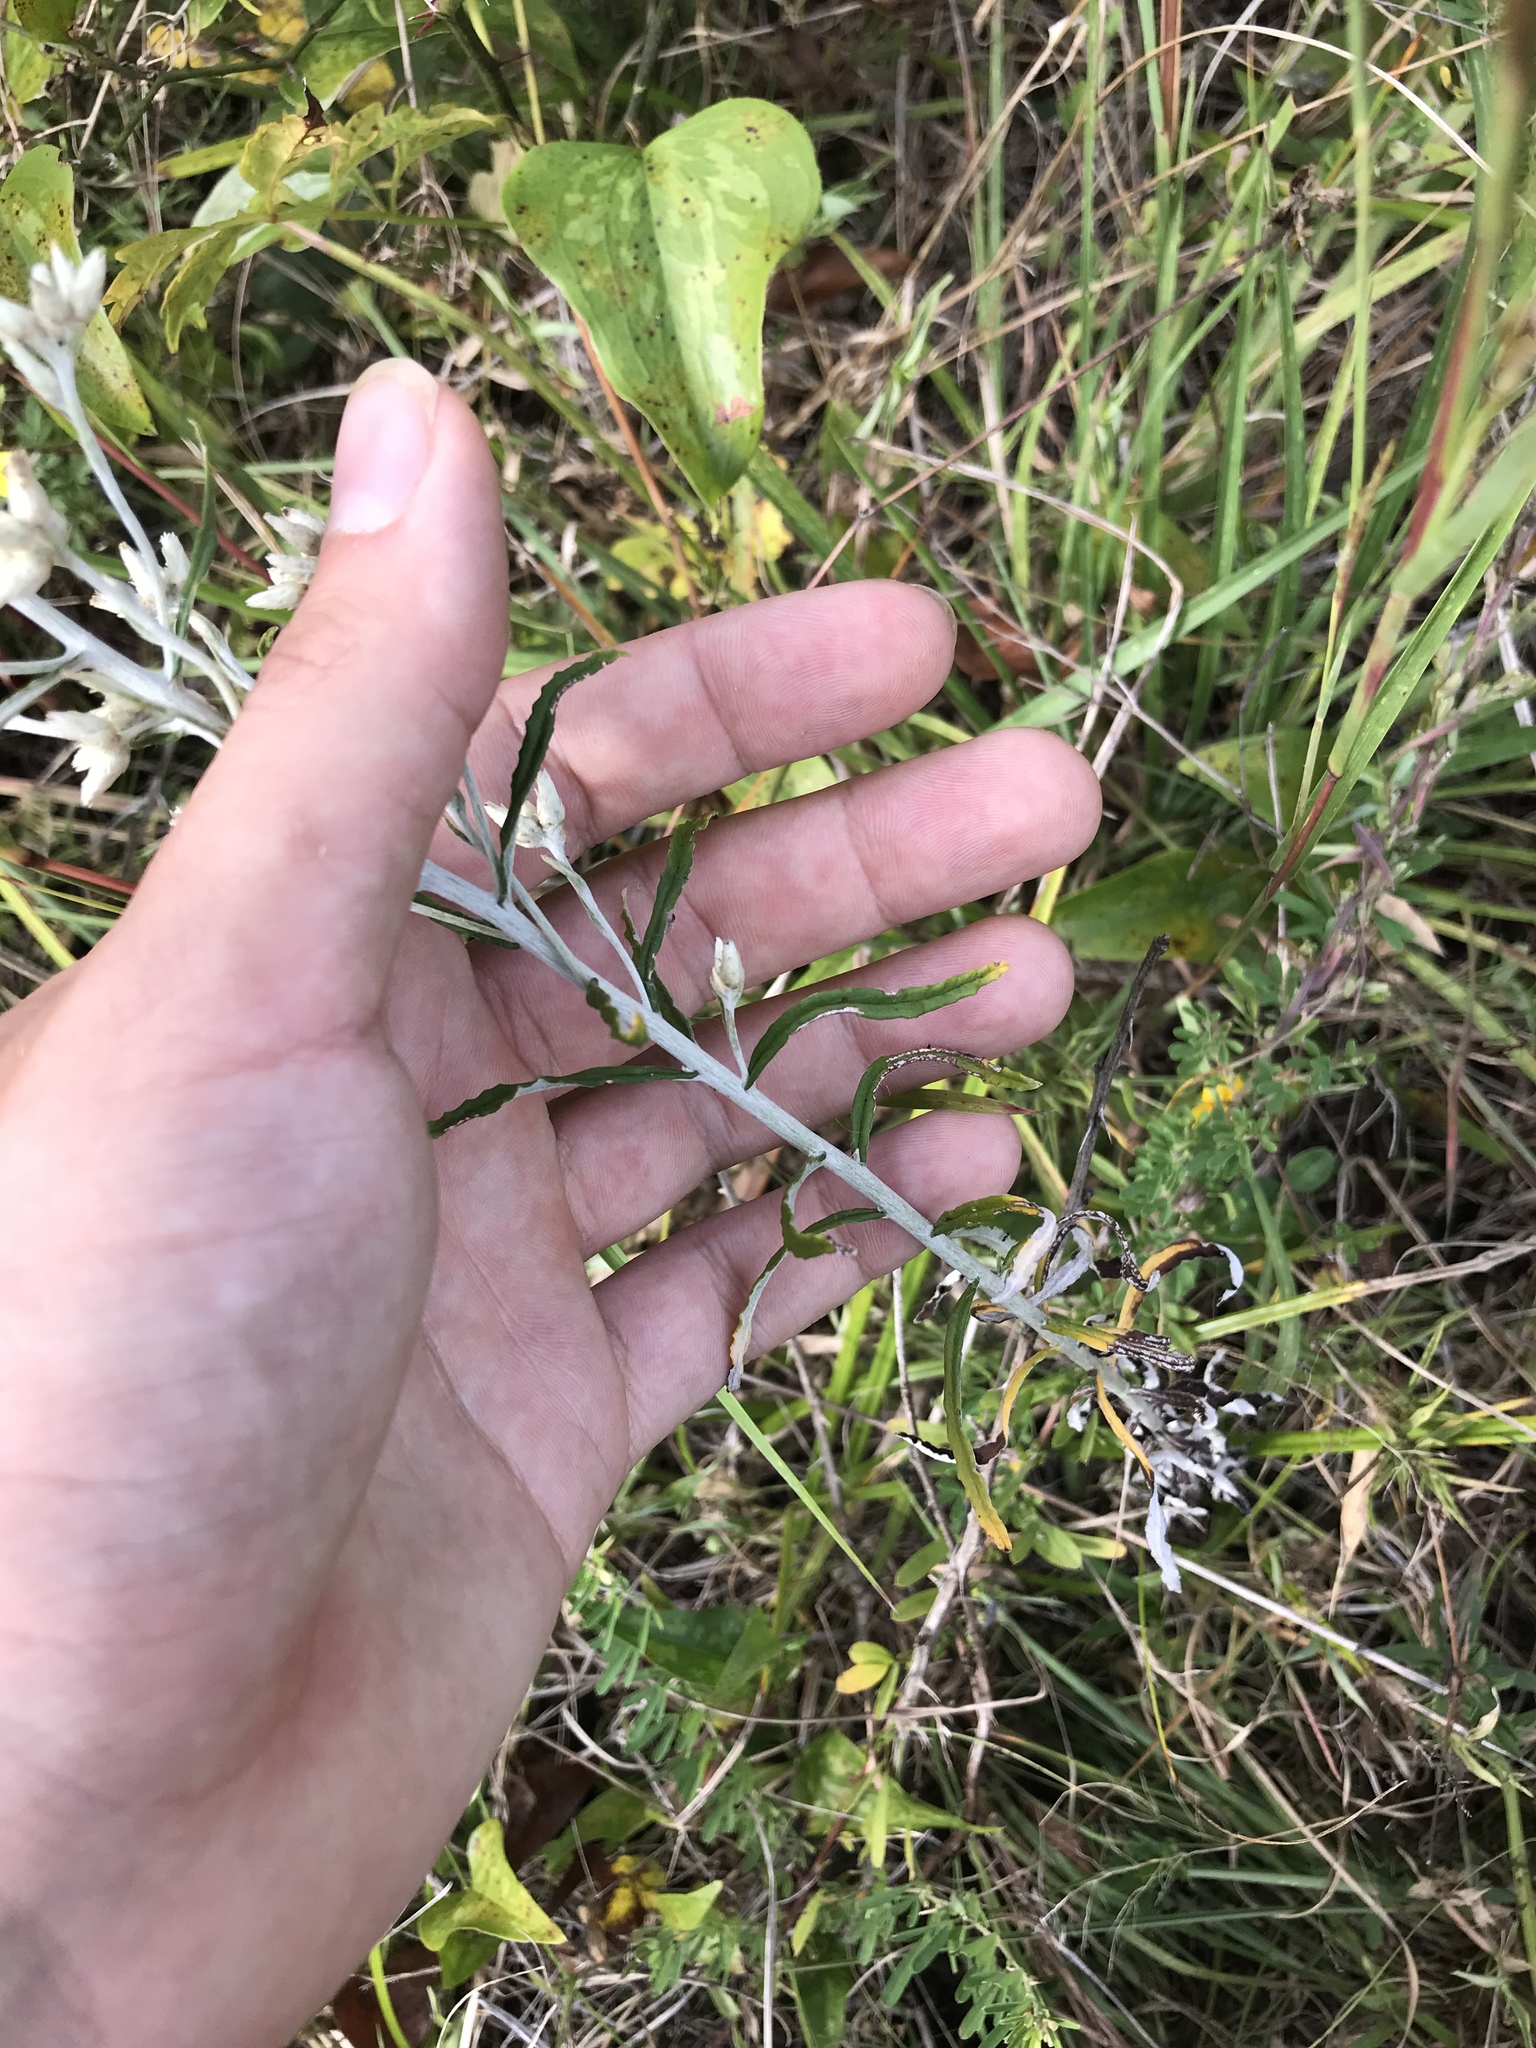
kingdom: Plantae
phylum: Tracheophyta
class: Magnoliopsida
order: Asterales
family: Asteraceae
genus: Pseudognaphalium
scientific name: Pseudognaphalium obtusifolium
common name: Eastern rabbit-tobacco
